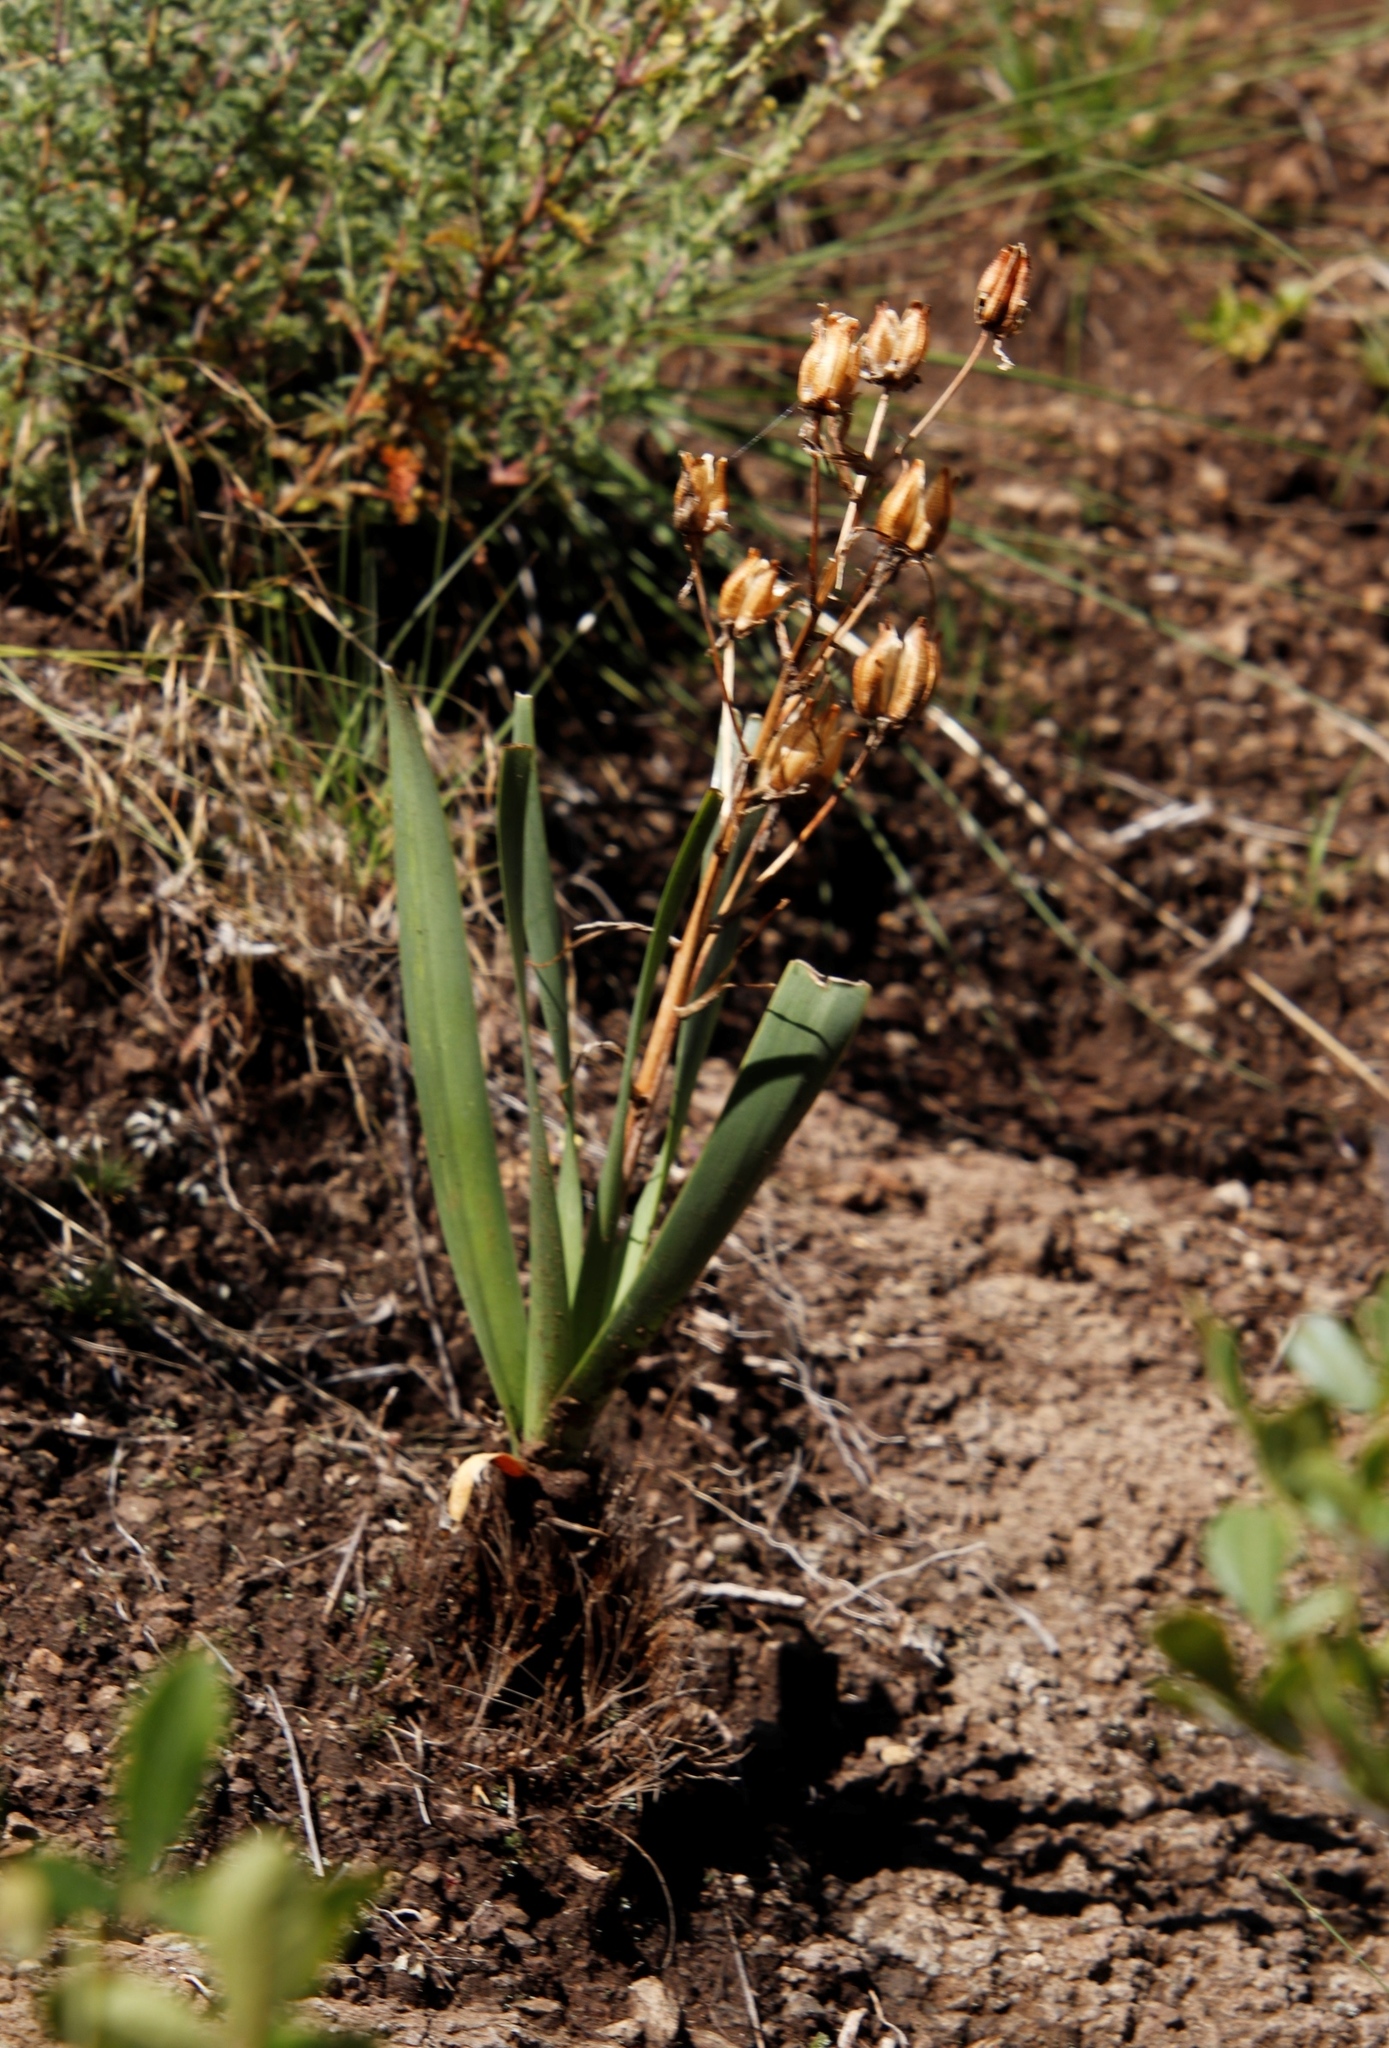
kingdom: Plantae
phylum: Tracheophyta
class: Liliopsida
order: Asparagales
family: Asparagaceae
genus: Albuca
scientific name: Albuca setosa
